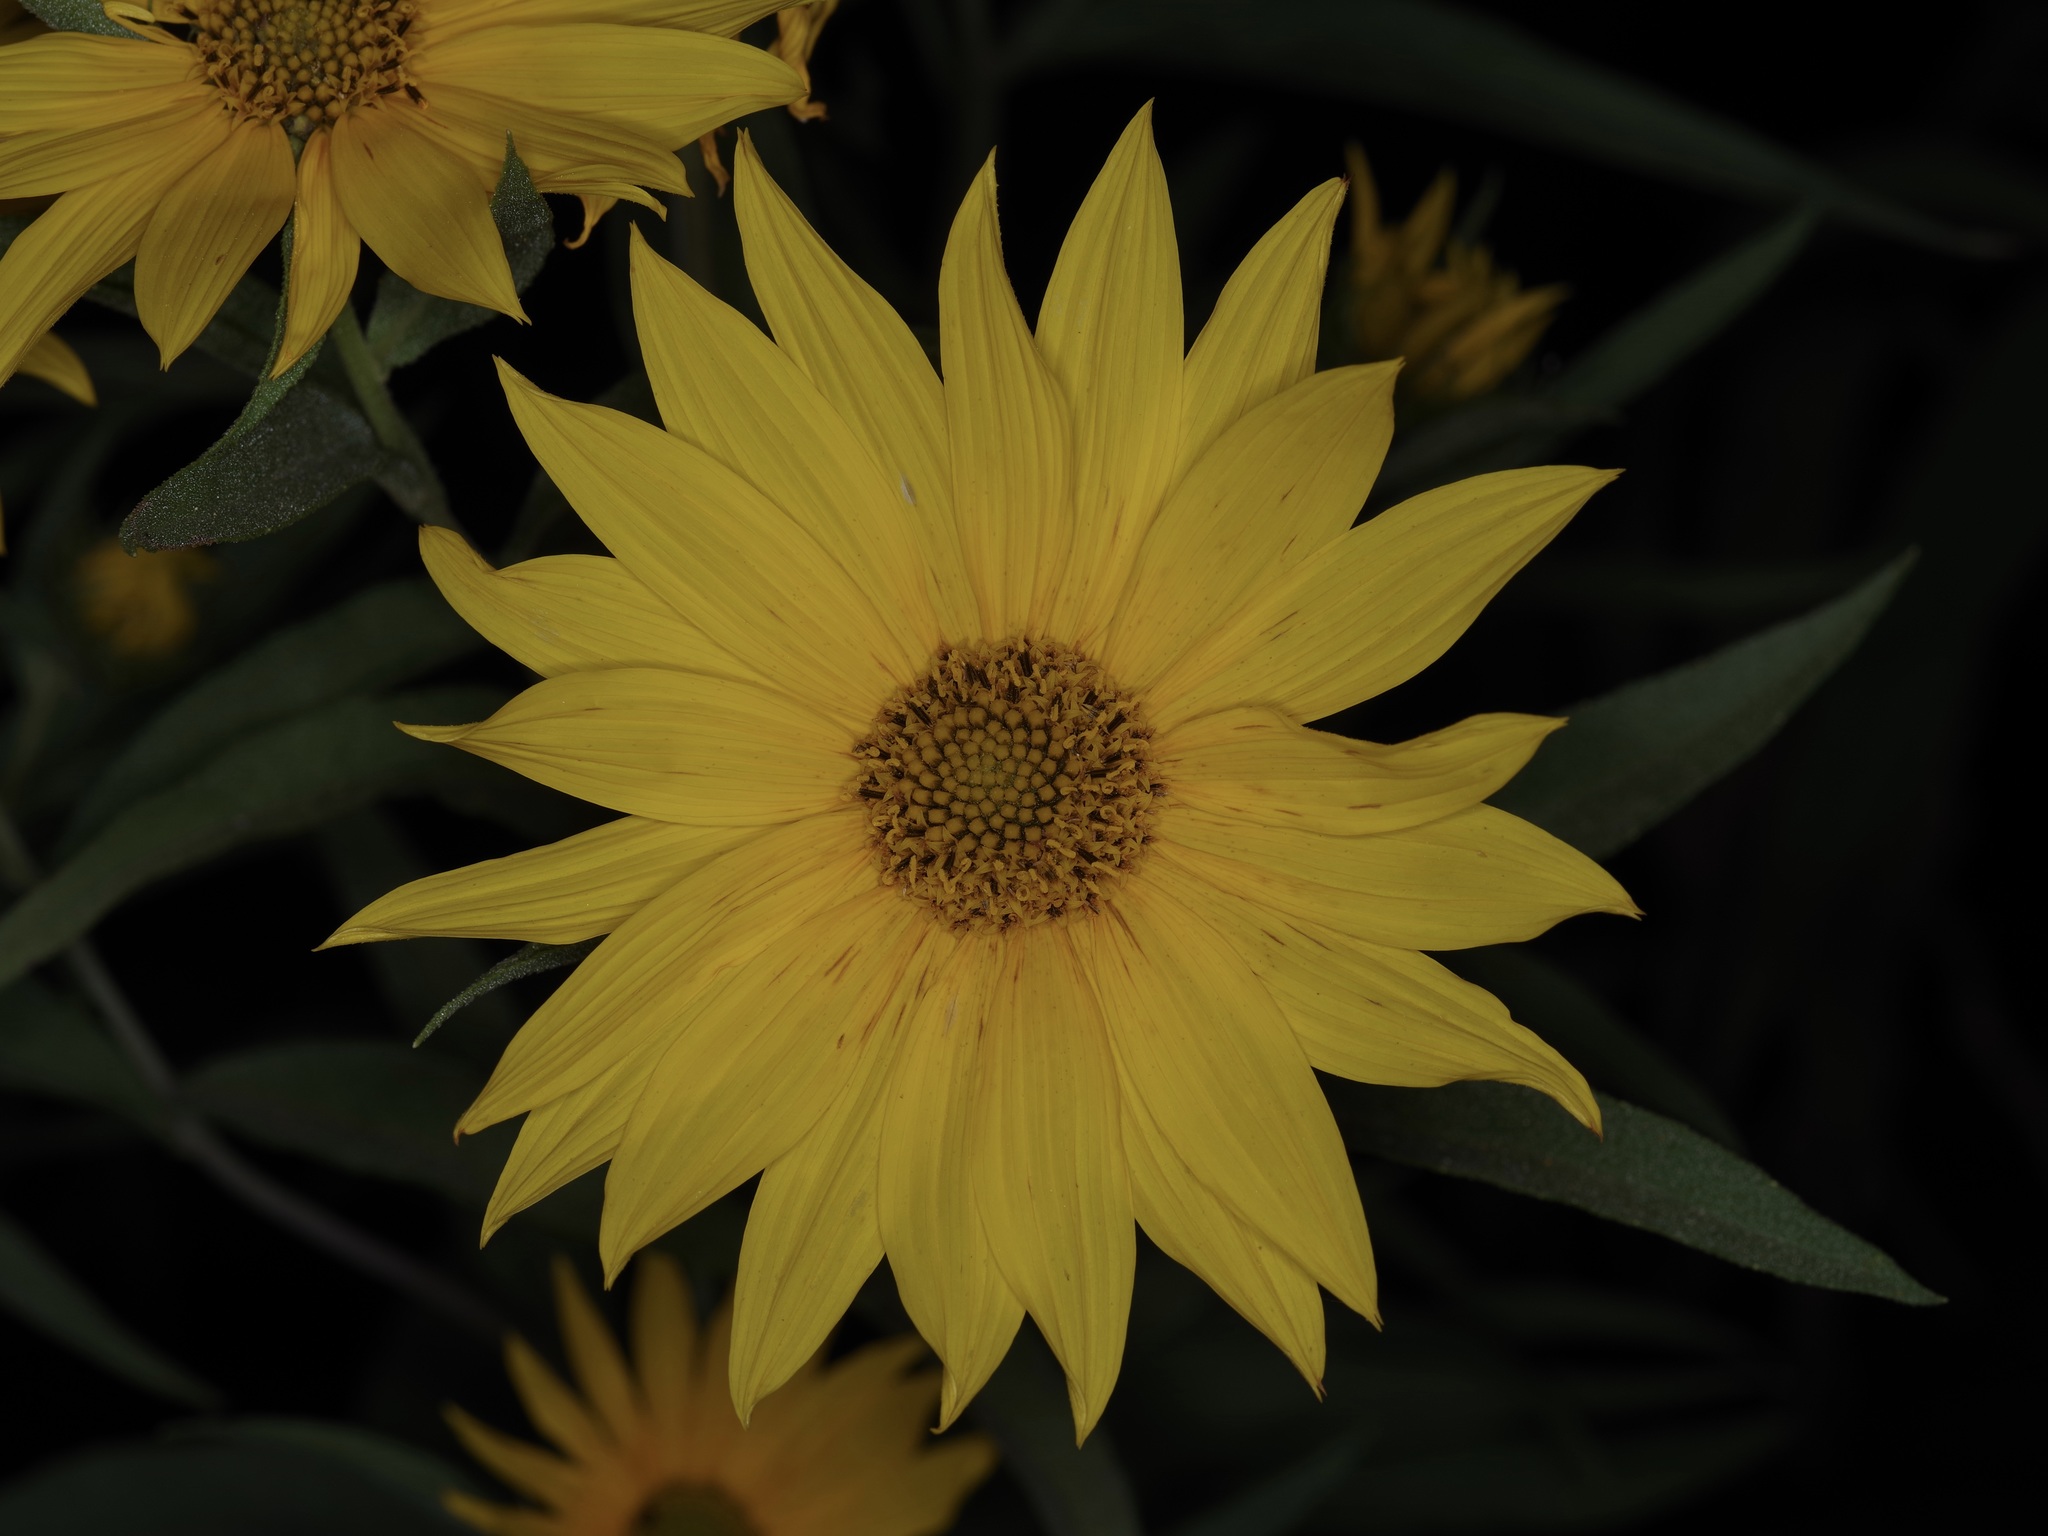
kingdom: Plantae
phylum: Tracheophyta
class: Magnoliopsida
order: Asterales
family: Asteraceae
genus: Helianthus
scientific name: Helianthus maximiliani
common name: Maximilian's sunflower
